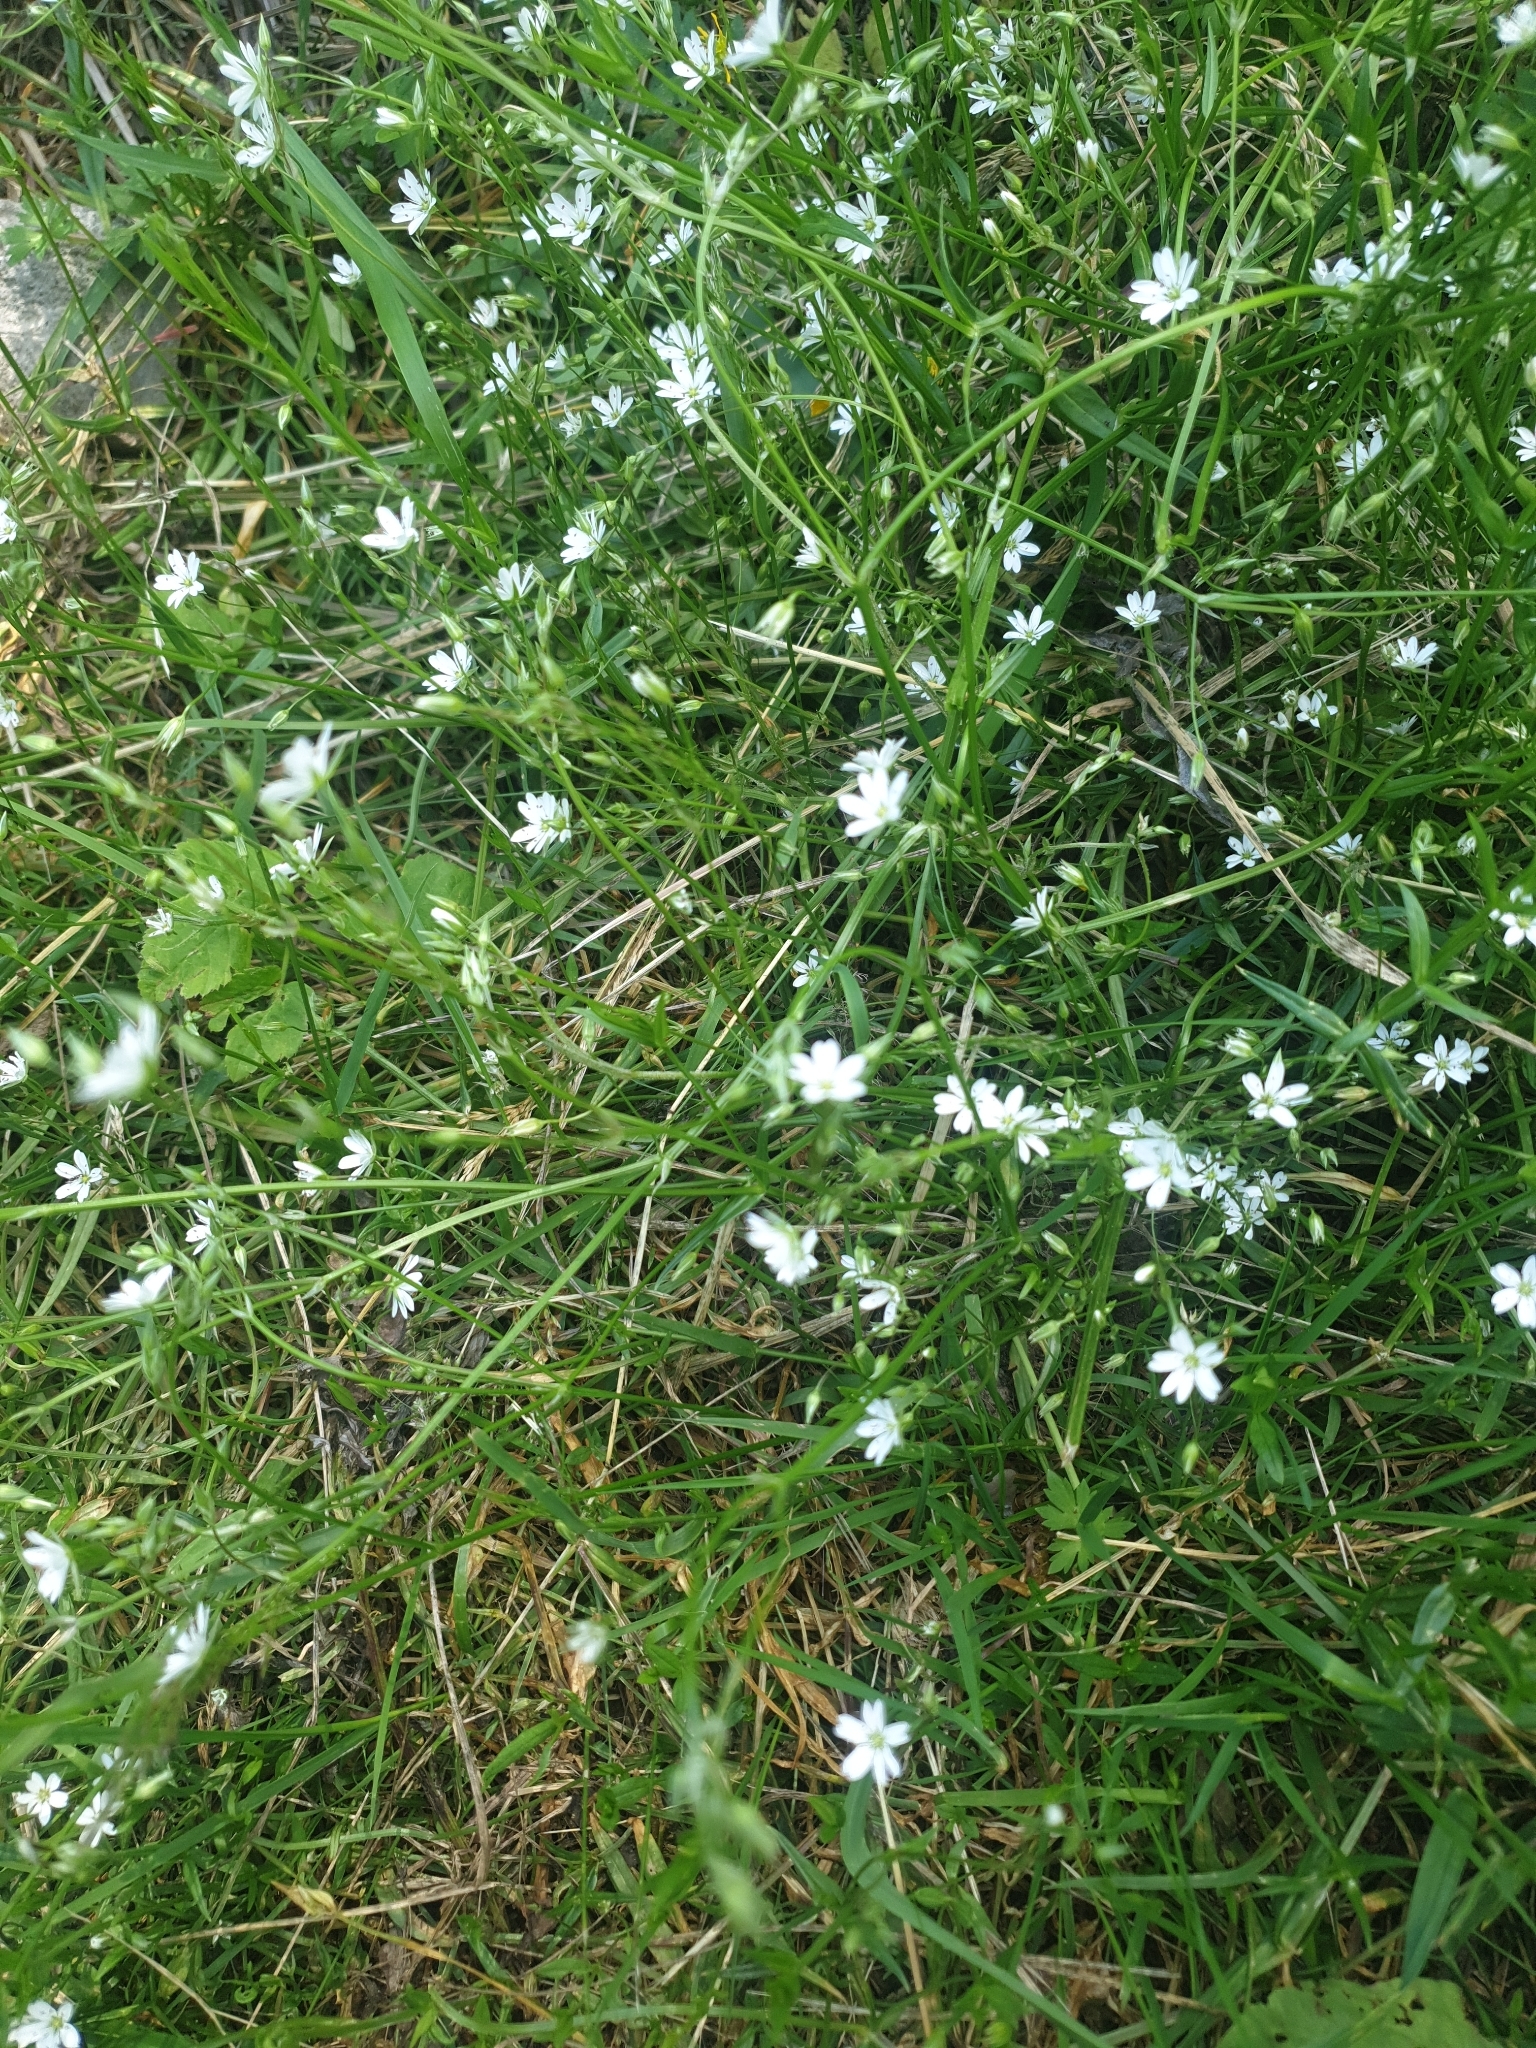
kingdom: Plantae
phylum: Tracheophyta
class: Magnoliopsida
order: Caryophyllales
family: Caryophyllaceae
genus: Stellaria
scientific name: Stellaria graminea
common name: Grass-like starwort
